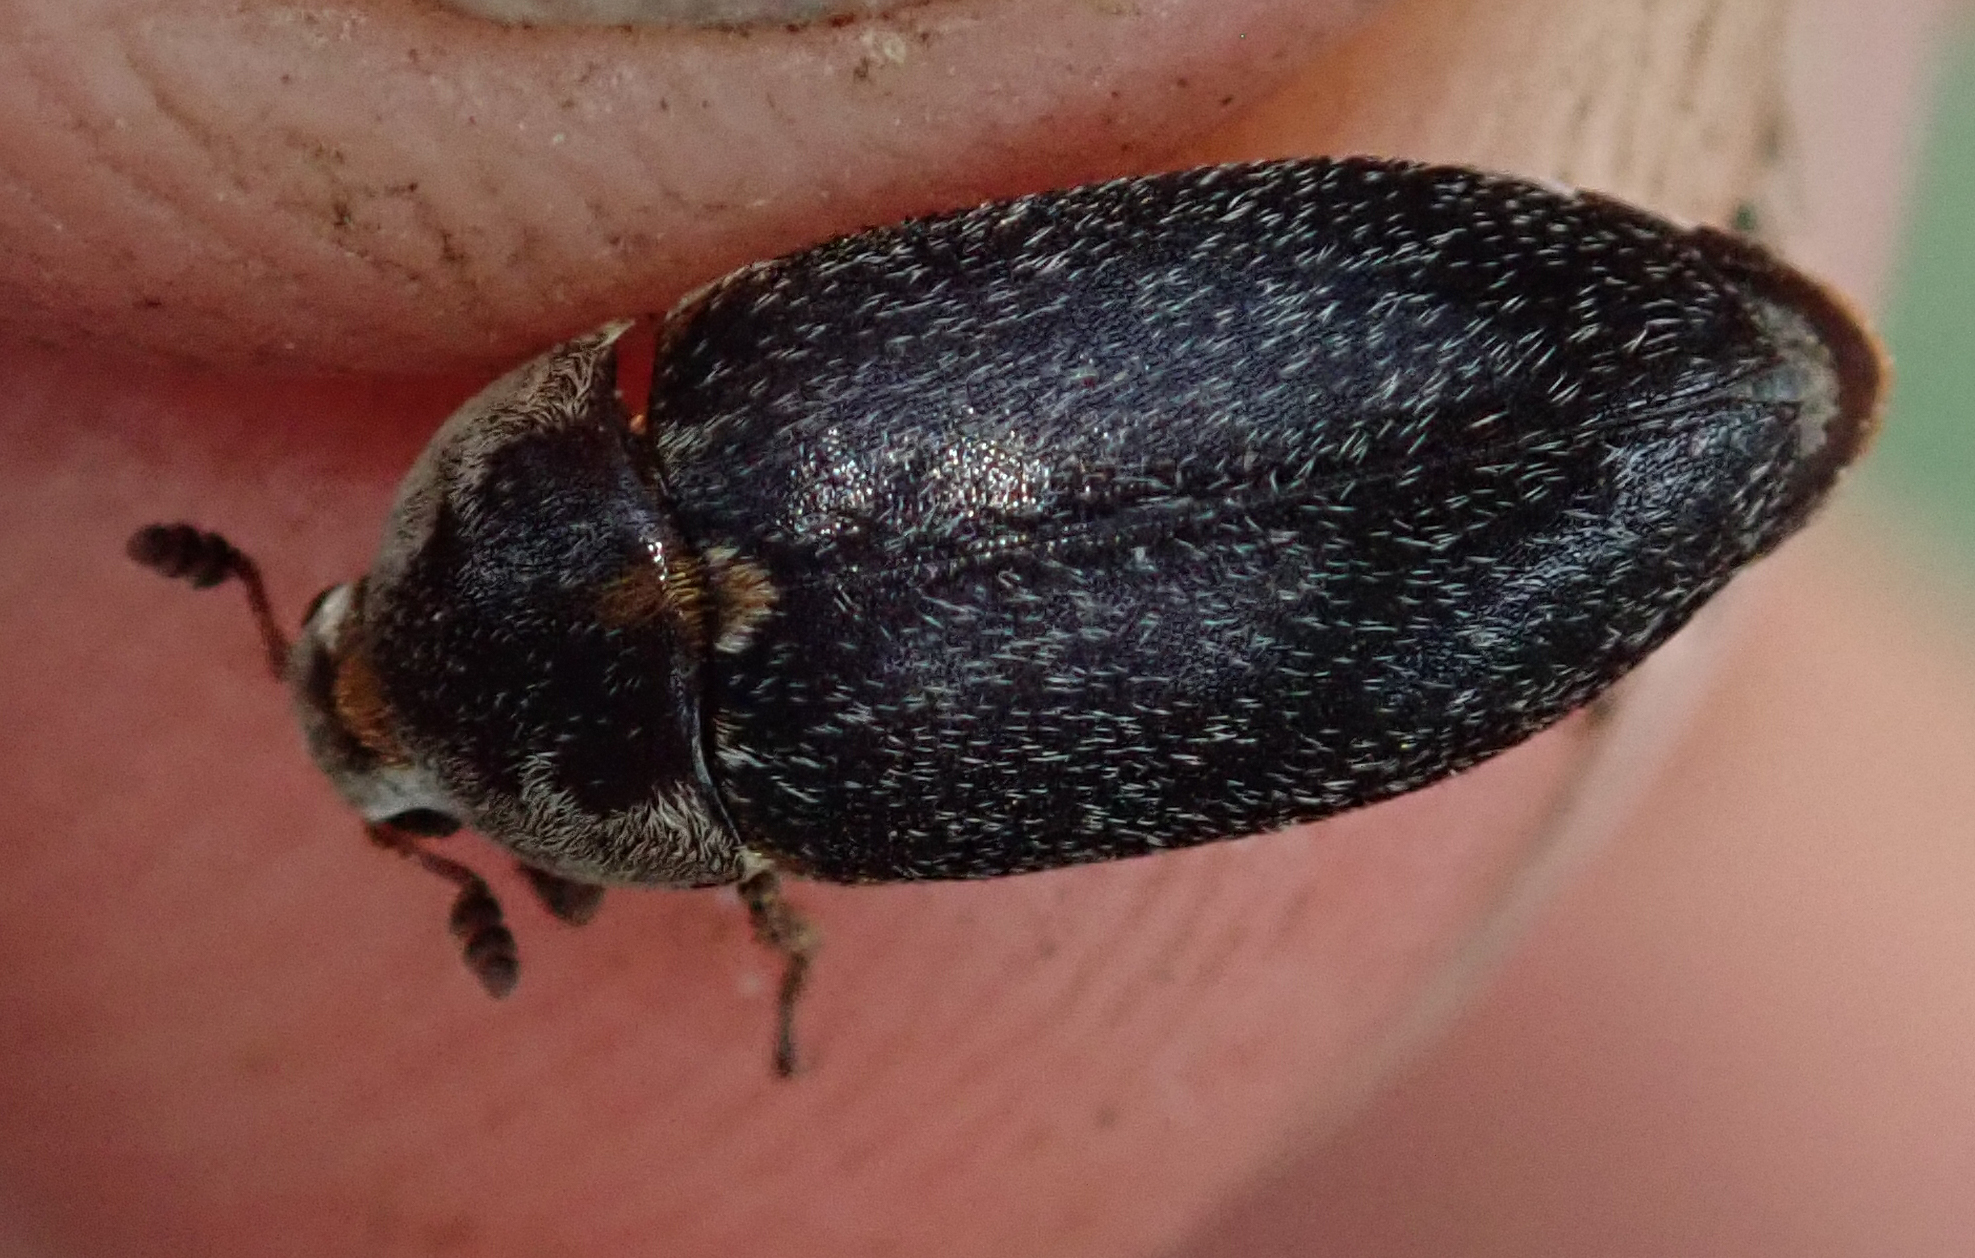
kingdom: Animalia
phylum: Arthropoda
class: Insecta
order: Coleoptera
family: Dermestidae
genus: Dermestes
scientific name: Dermestes maculatus
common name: Hide beetle
